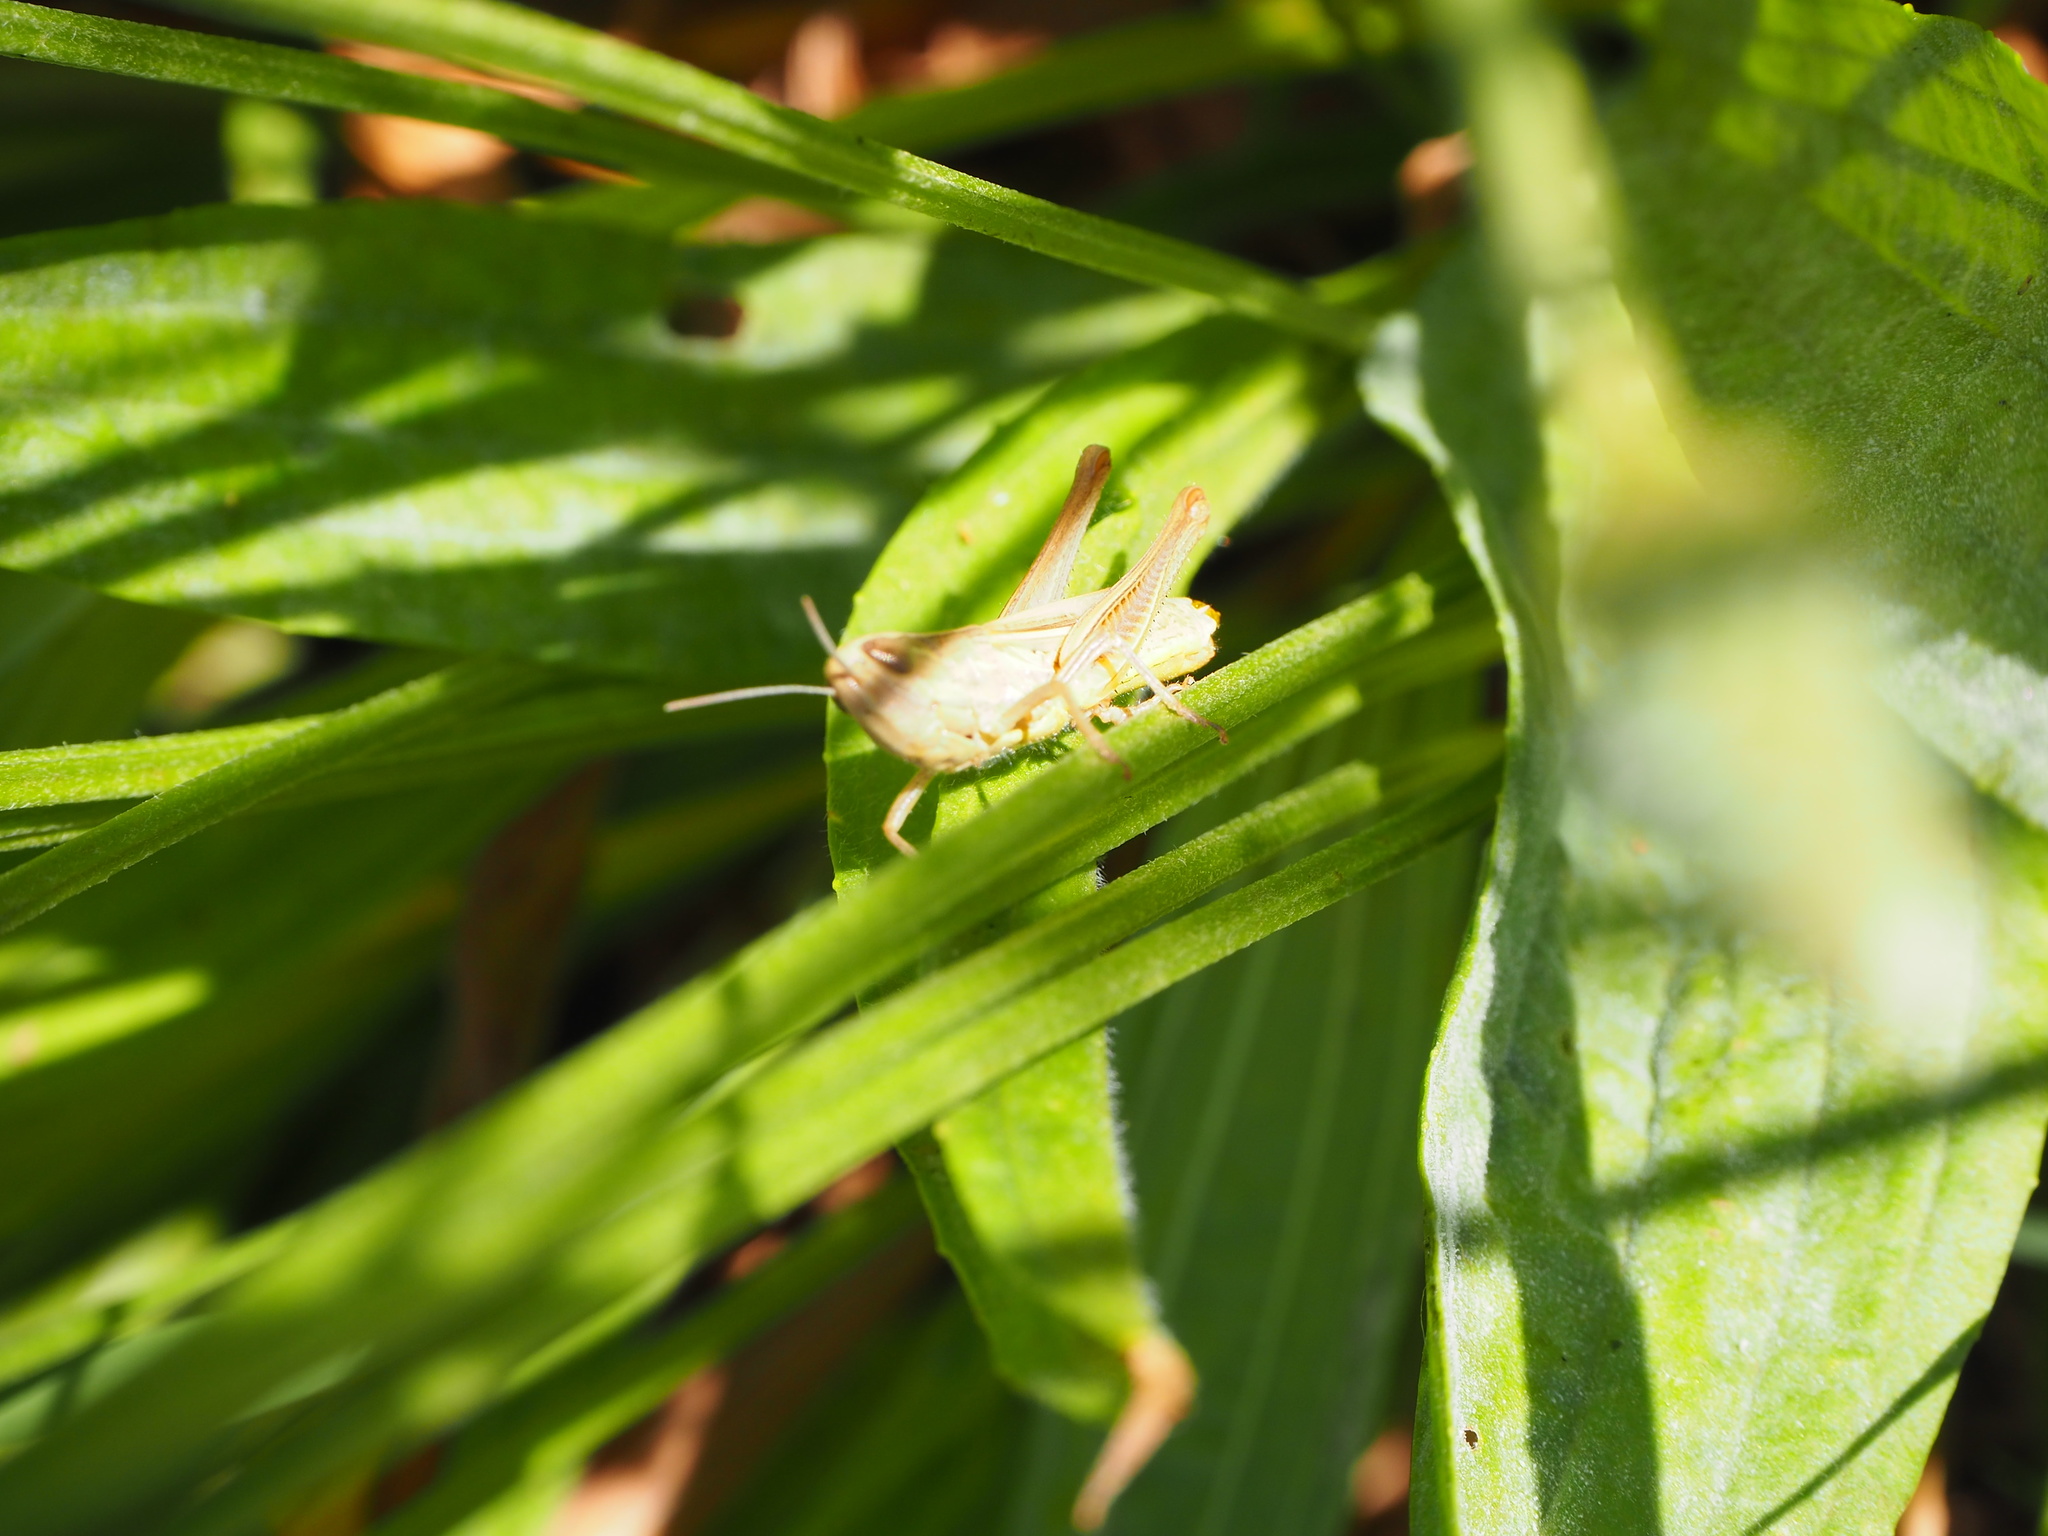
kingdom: Animalia
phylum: Arthropoda
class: Insecta
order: Orthoptera
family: Acrididae
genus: Euchorthippus
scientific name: Euchorthippus declivus
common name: Common straw grasshopper
